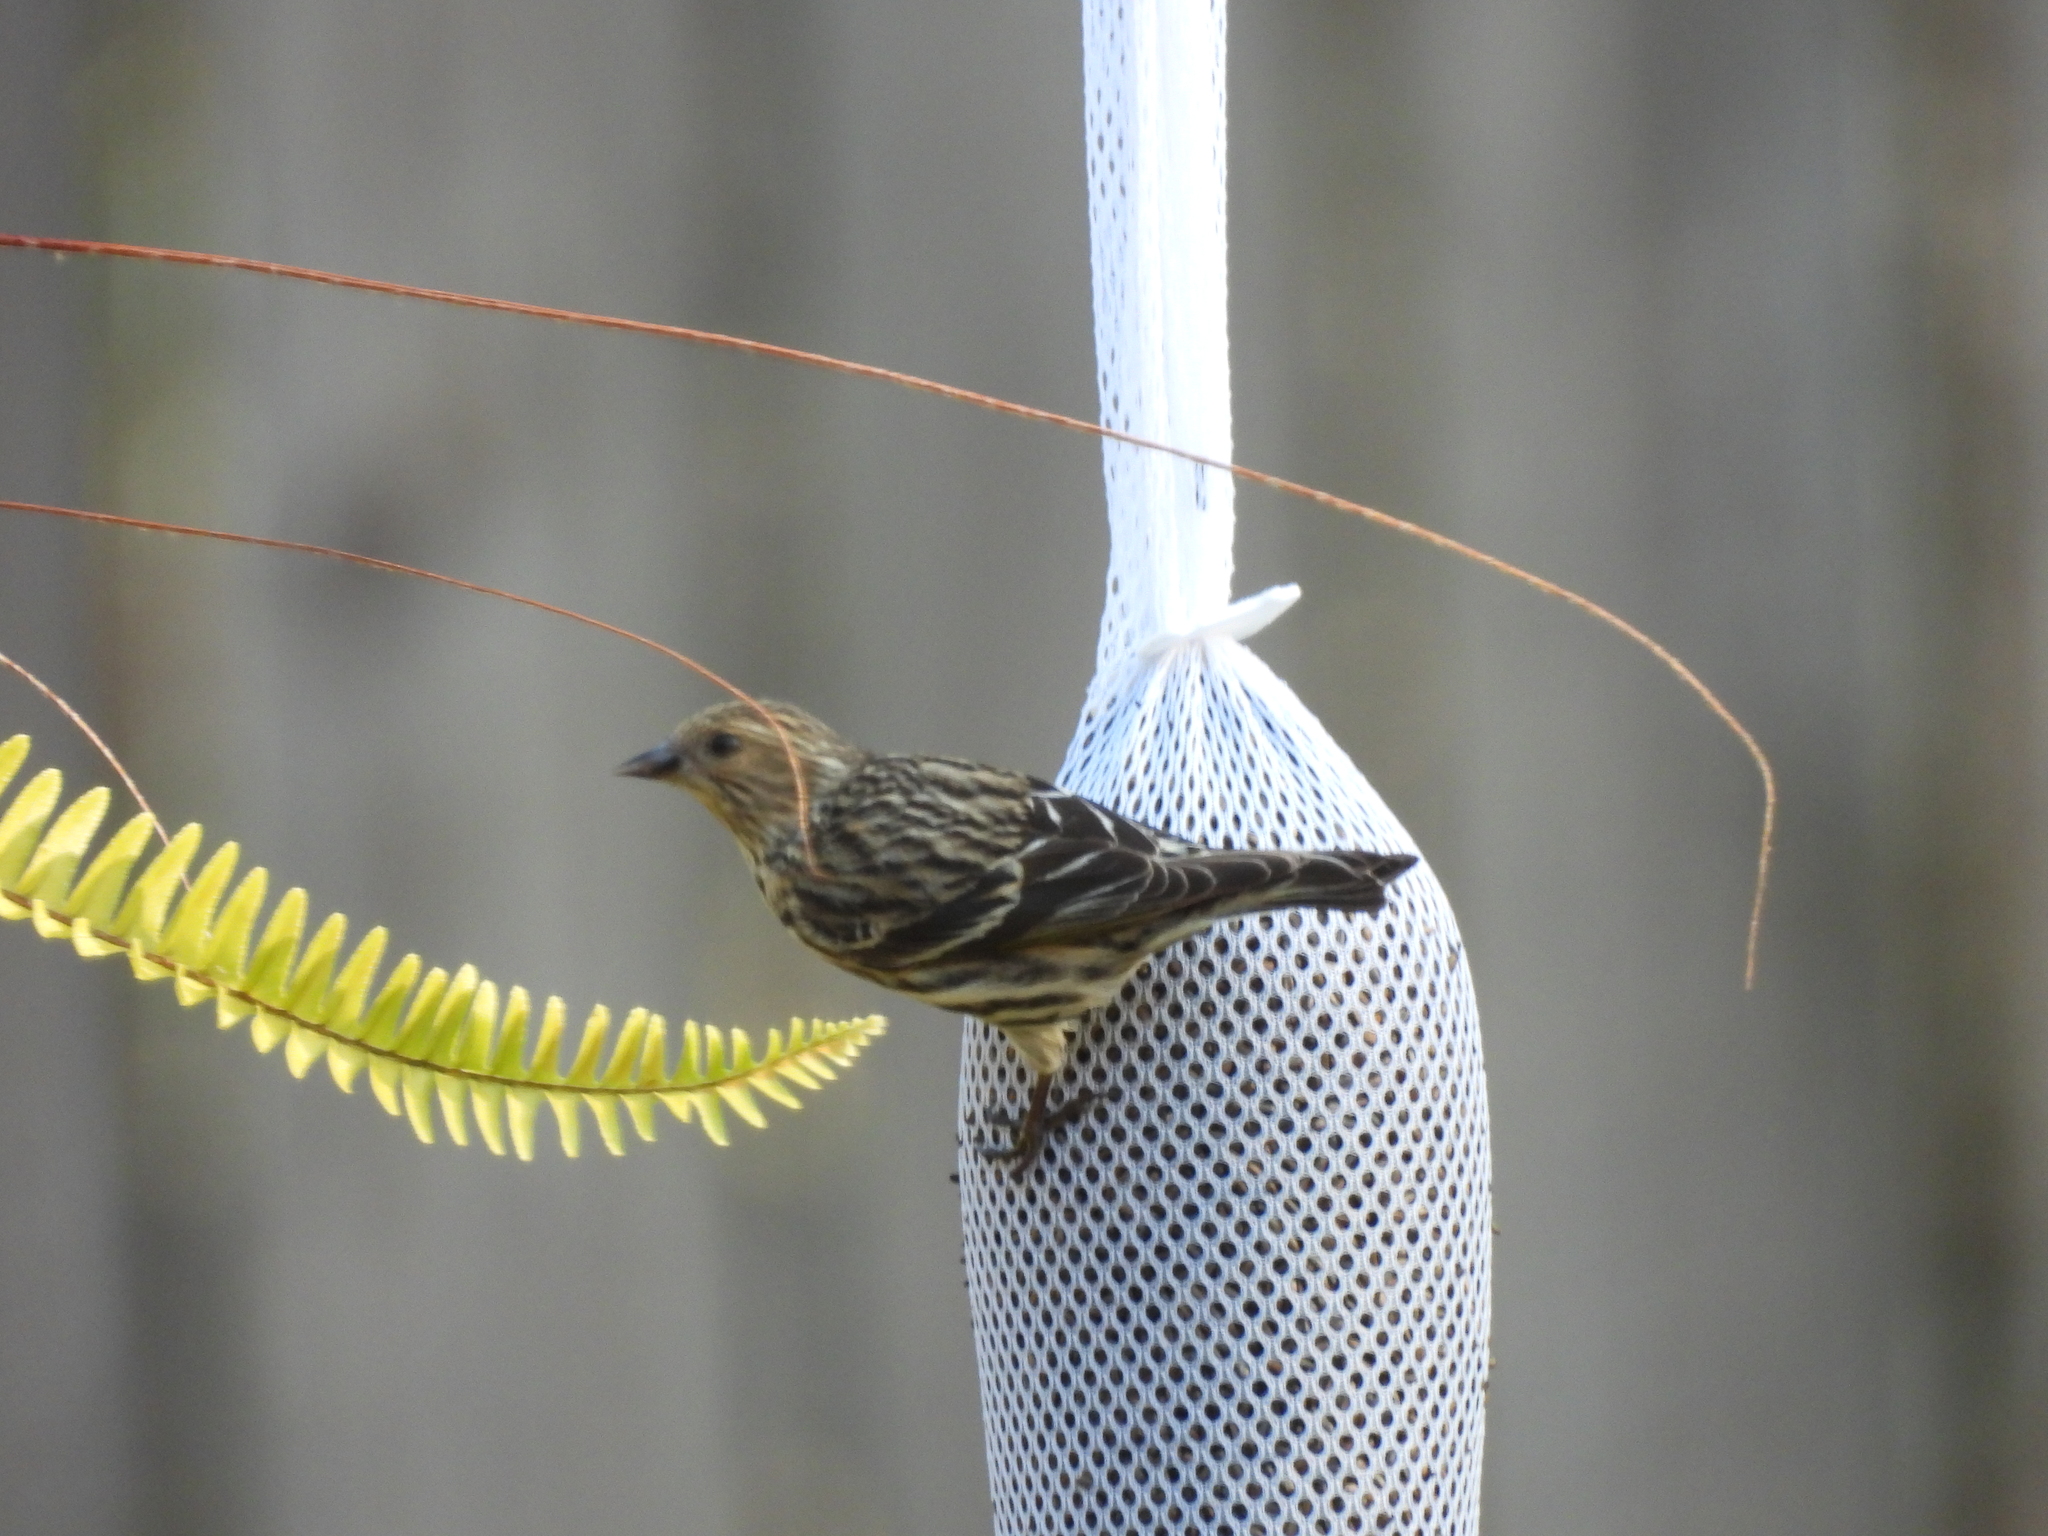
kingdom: Animalia
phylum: Chordata
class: Aves
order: Passeriformes
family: Fringillidae
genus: Spinus
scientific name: Spinus pinus
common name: Pine siskin
